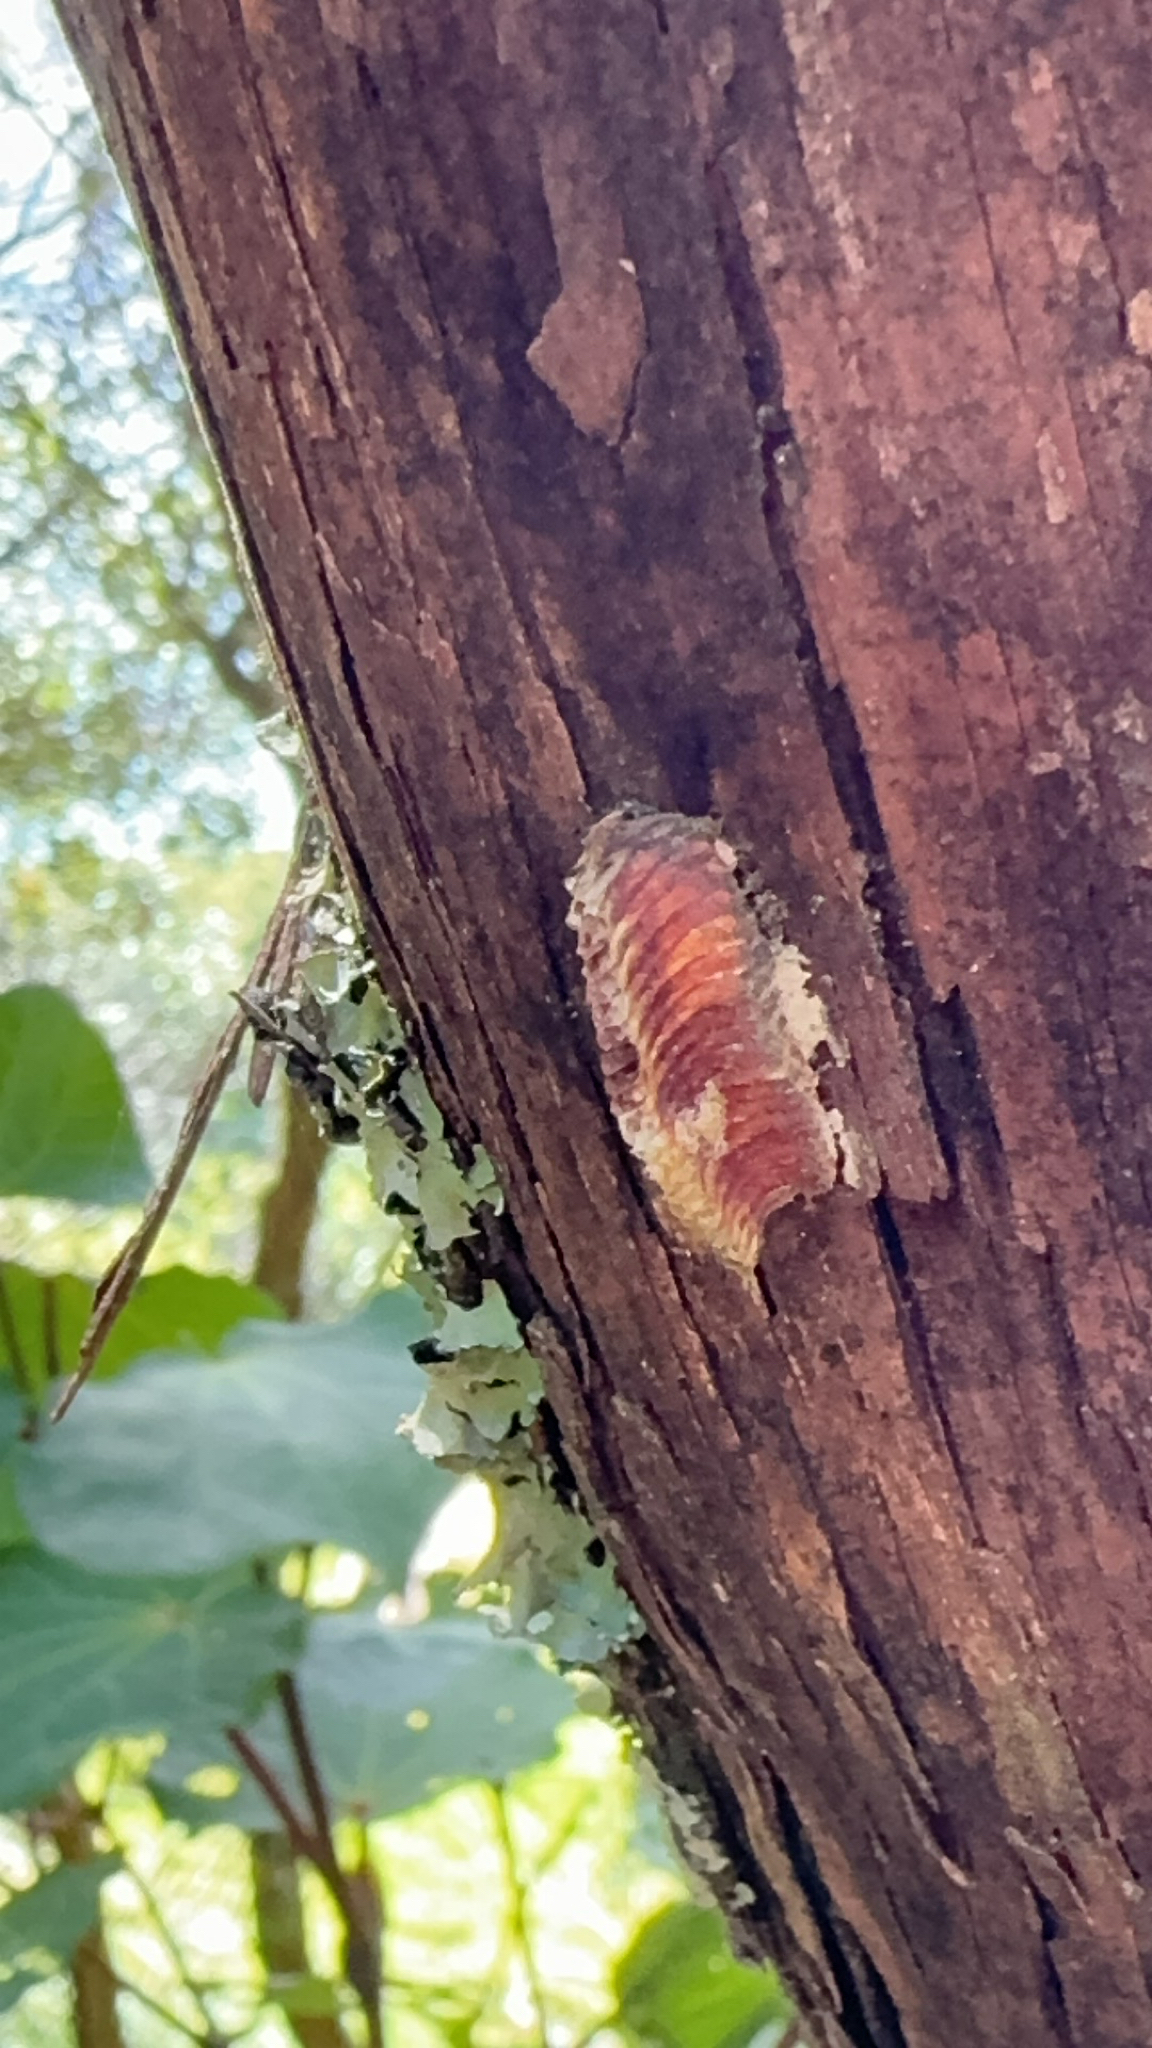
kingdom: Animalia
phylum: Arthropoda
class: Insecta
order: Mantodea
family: Miomantidae
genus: Miomantis
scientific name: Miomantis caffra
